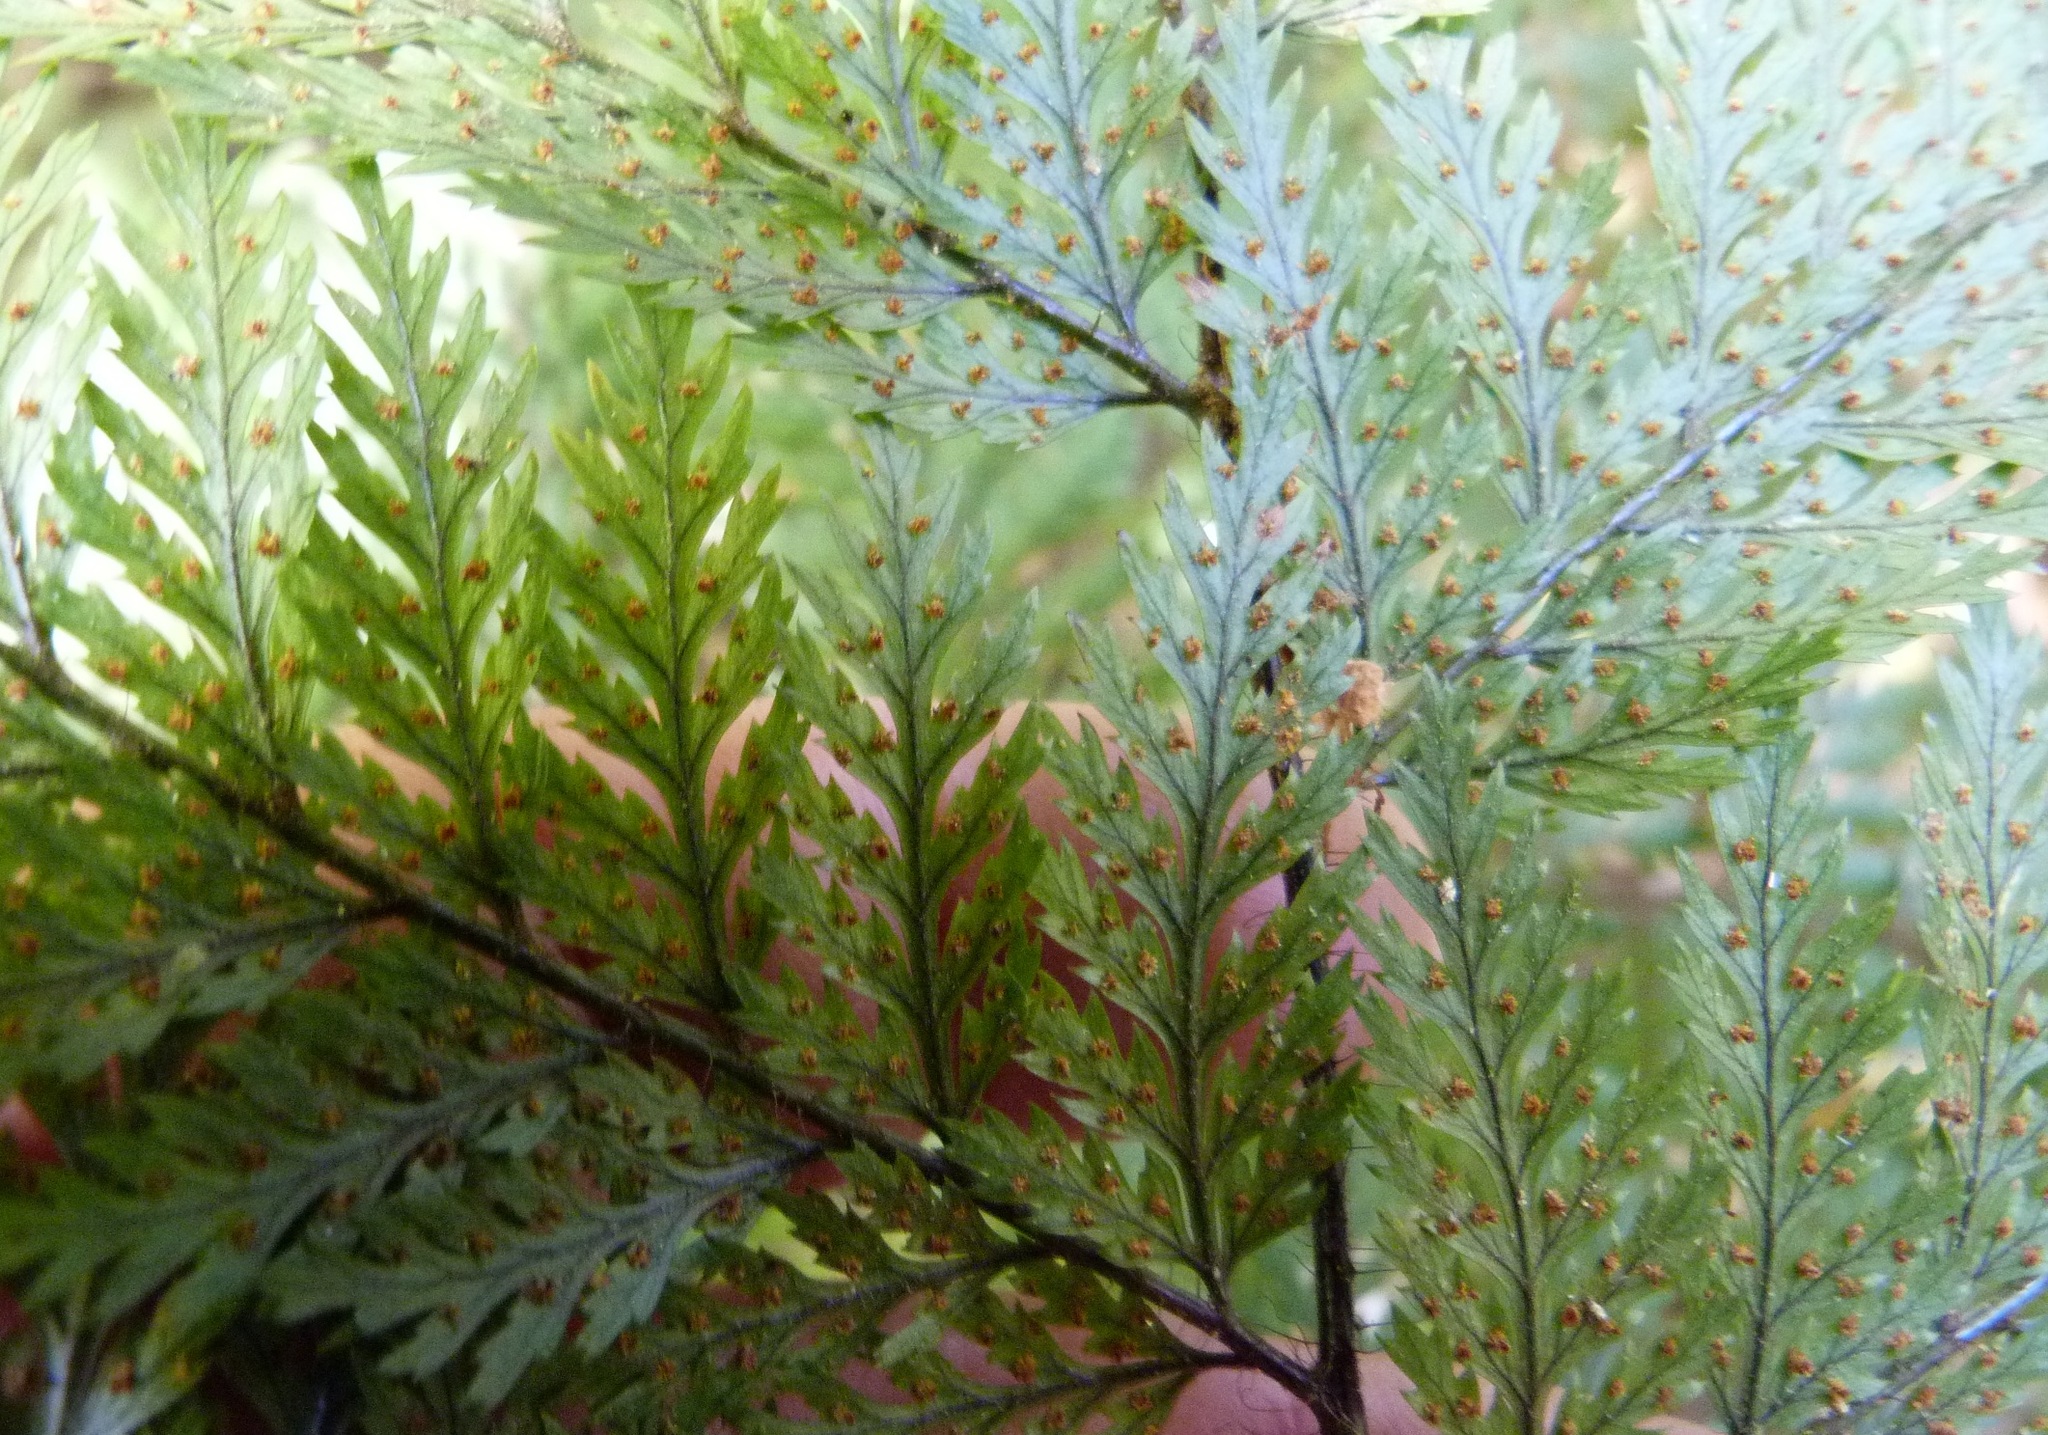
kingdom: Plantae
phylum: Tracheophyta
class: Polypodiopsida
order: Polypodiales
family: Dryopteridaceae
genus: Lastreopsis
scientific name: Lastreopsis hispida
